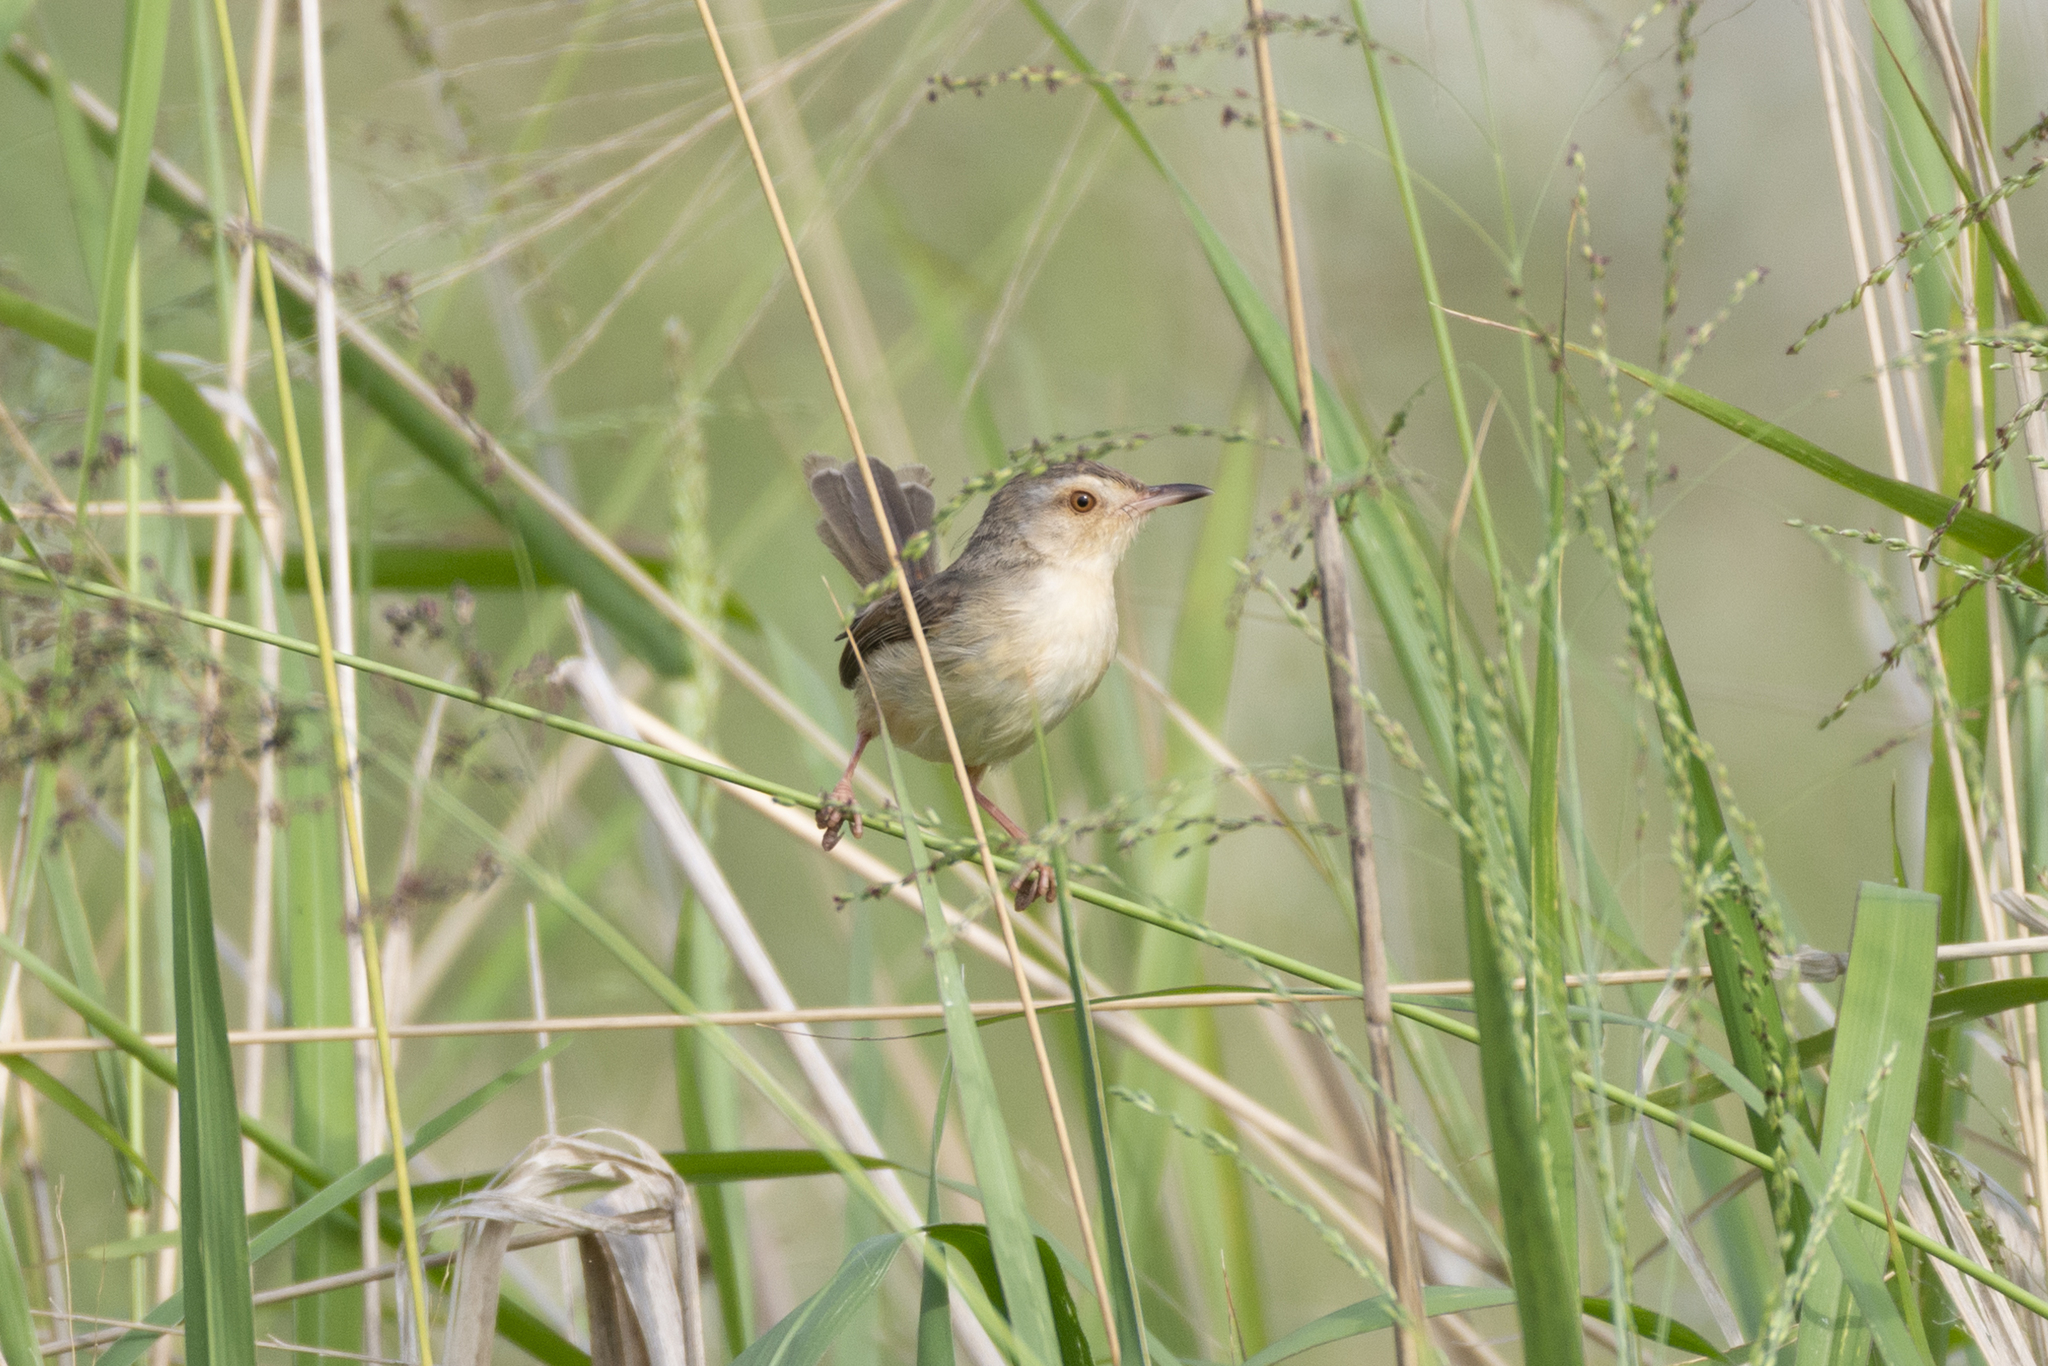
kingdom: Animalia
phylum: Chordata
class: Aves
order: Passeriformes
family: Cisticolidae
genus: Prinia
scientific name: Prinia inornata
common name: Plain prinia
